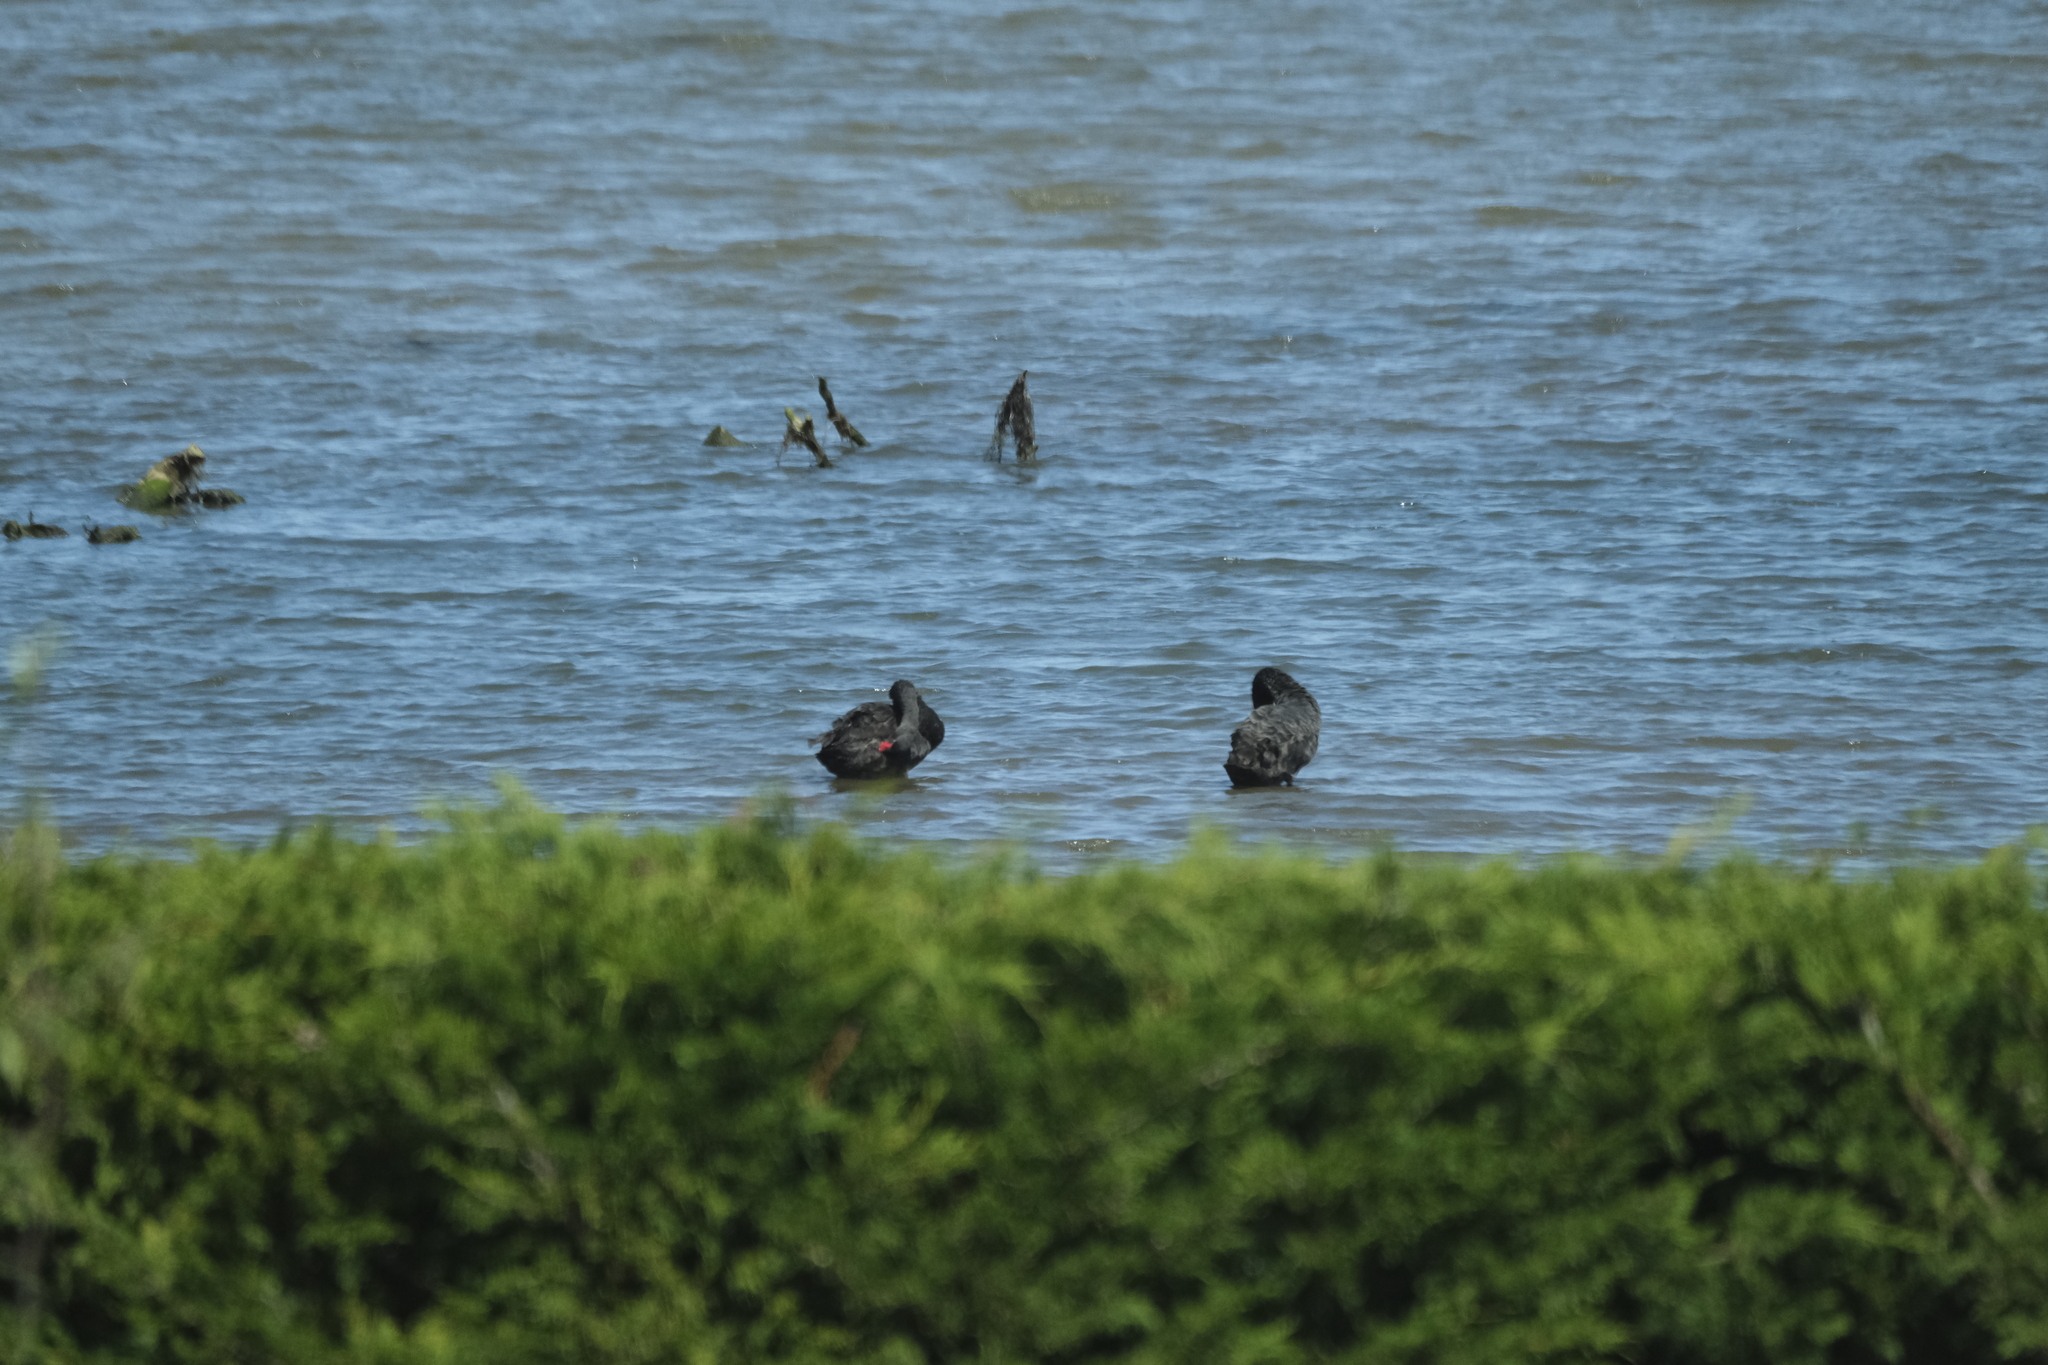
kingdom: Animalia
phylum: Chordata
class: Aves
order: Anseriformes
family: Anatidae
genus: Cygnus
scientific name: Cygnus atratus
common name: Black swan
